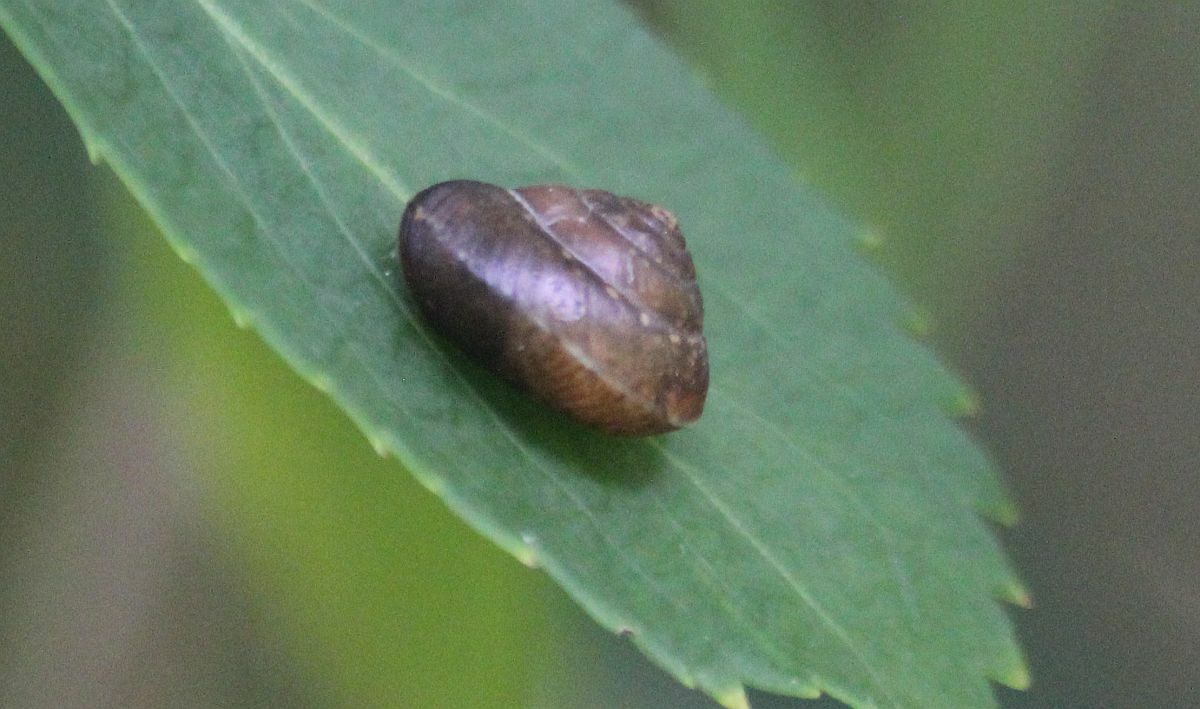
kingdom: Animalia
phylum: Mollusca
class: Gastropoda
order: Stylommatophora
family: Hygromiidae
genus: Hygromia
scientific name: Hygromia cinctella
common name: Girdled snail
